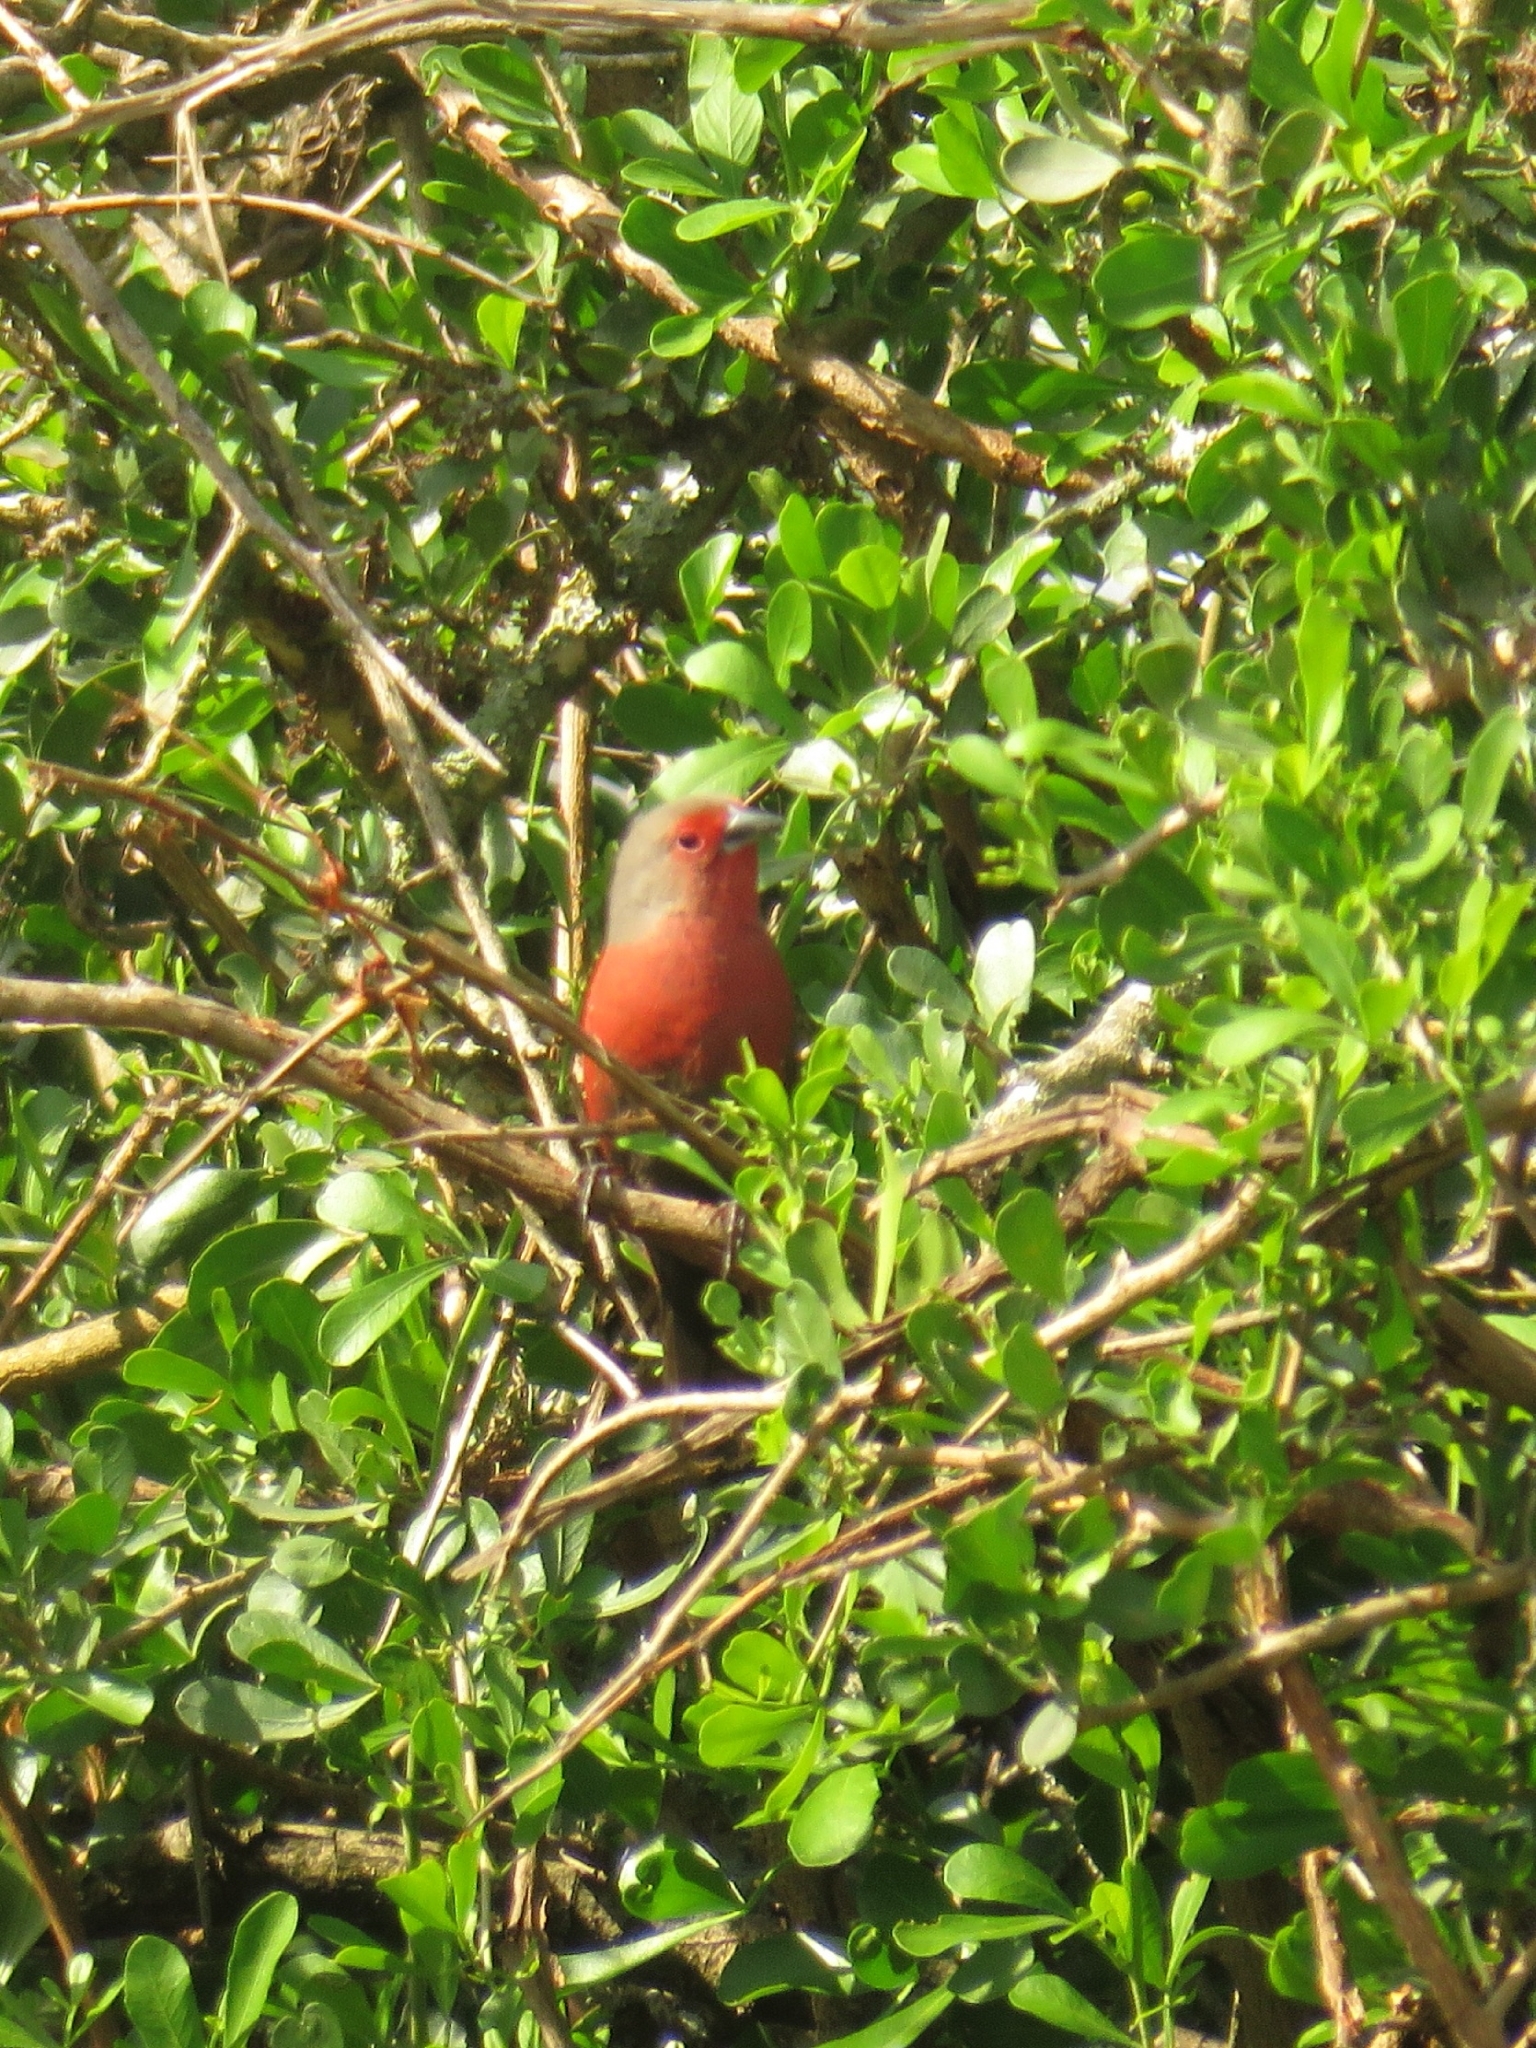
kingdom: Animalia
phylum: Chordata
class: Aves
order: Passeriformes
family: Estrildidae
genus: Lagonosticta
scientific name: Lagonosticta rubricata
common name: African firefinch
